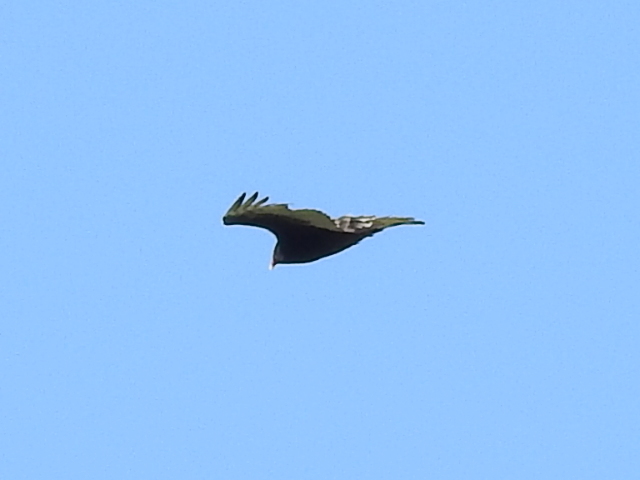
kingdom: Animalia
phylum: Chordata
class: Aves
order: Accipitriformes
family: Cathartidae
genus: Cathartes
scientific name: Cathartes aura
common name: Turkey vulture
